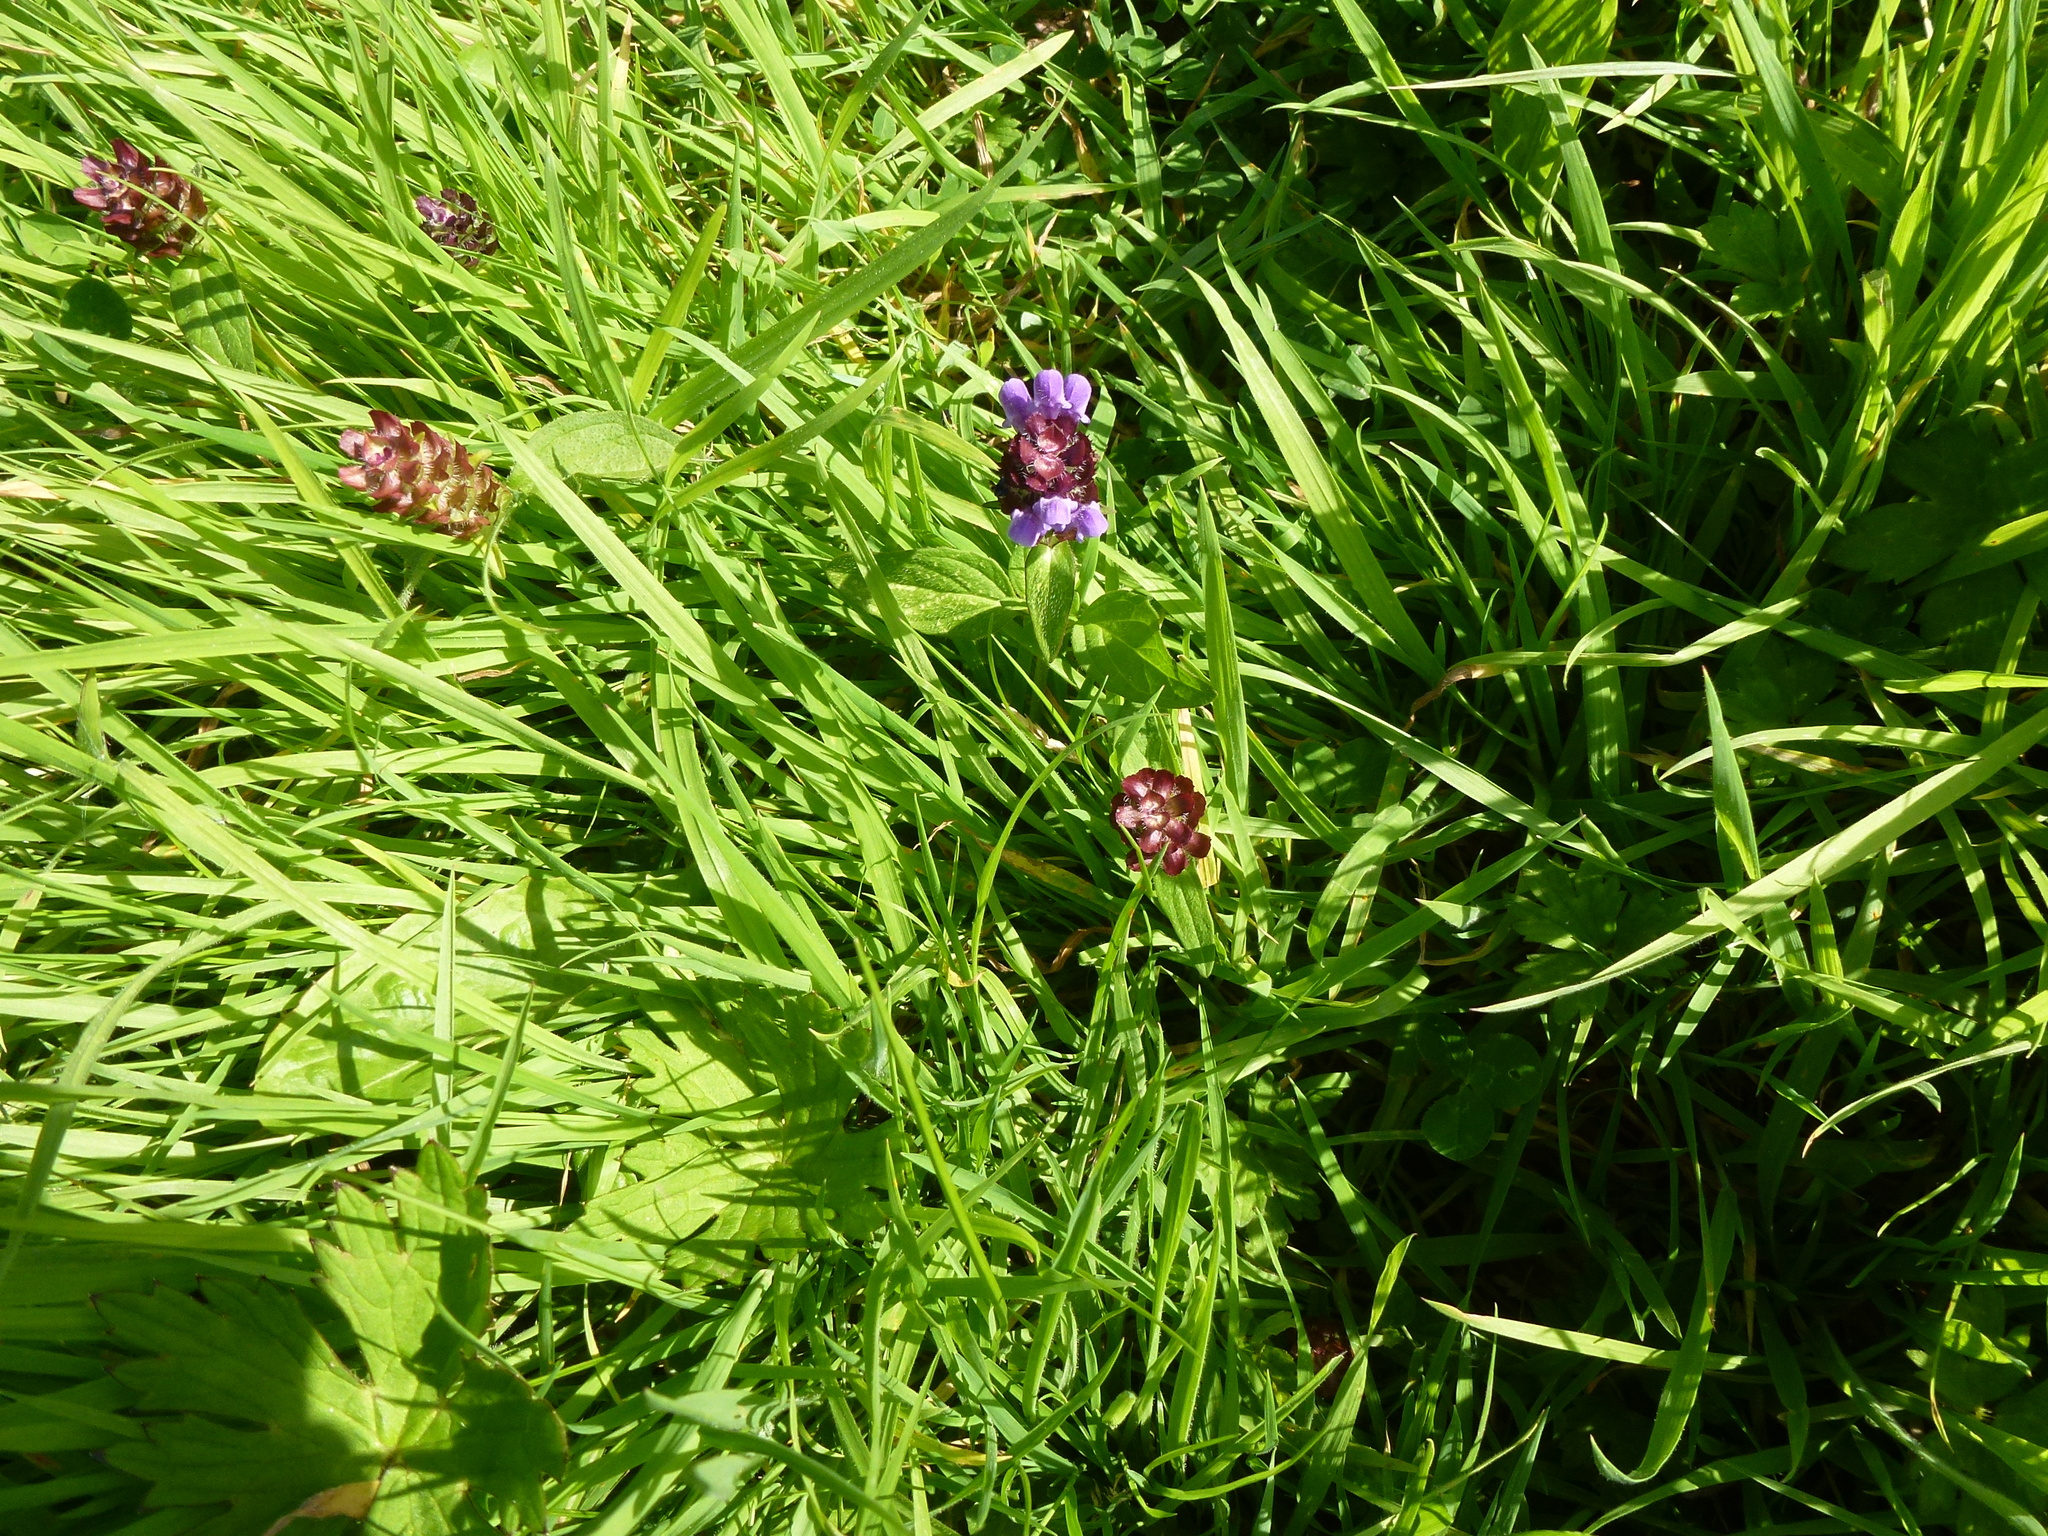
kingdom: Plantae
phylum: Tracheophyta
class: Magnoliopsida
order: Lamiales
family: Lamiaceae
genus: Prunella
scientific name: Prunella vulgaris
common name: Heal-all
